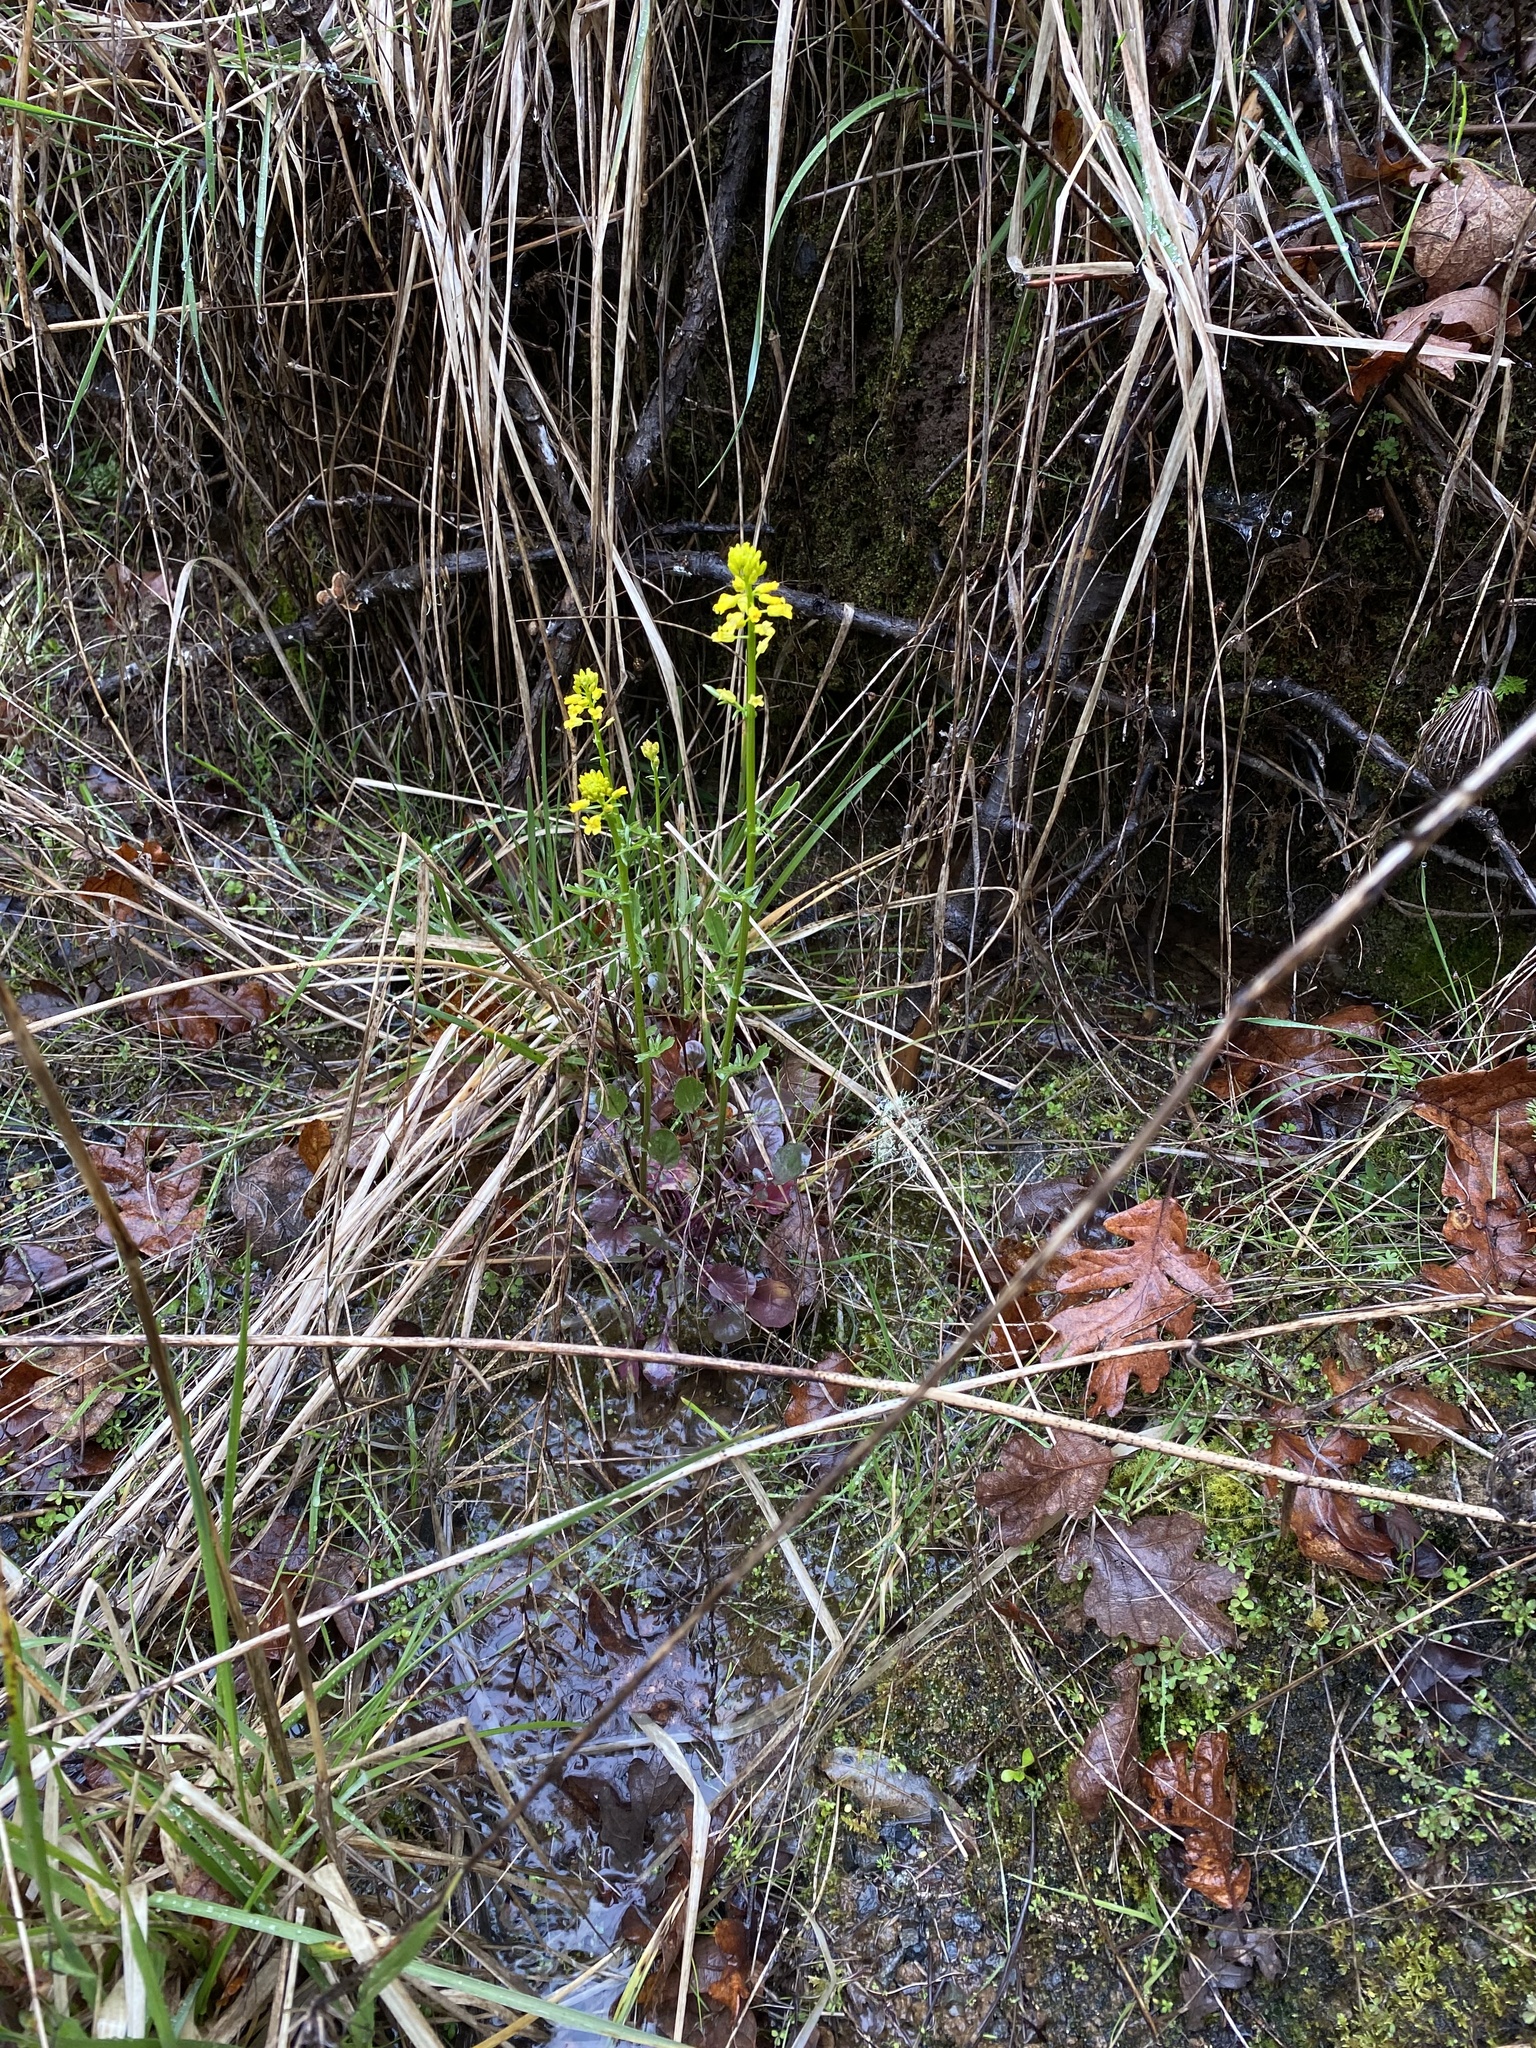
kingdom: Plantae
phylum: Tracheophyta
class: Magnoliopsida
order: Brassicales
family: Brassicaceae
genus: Barbarea
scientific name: Barbarea orthoceras
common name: American wintercress
